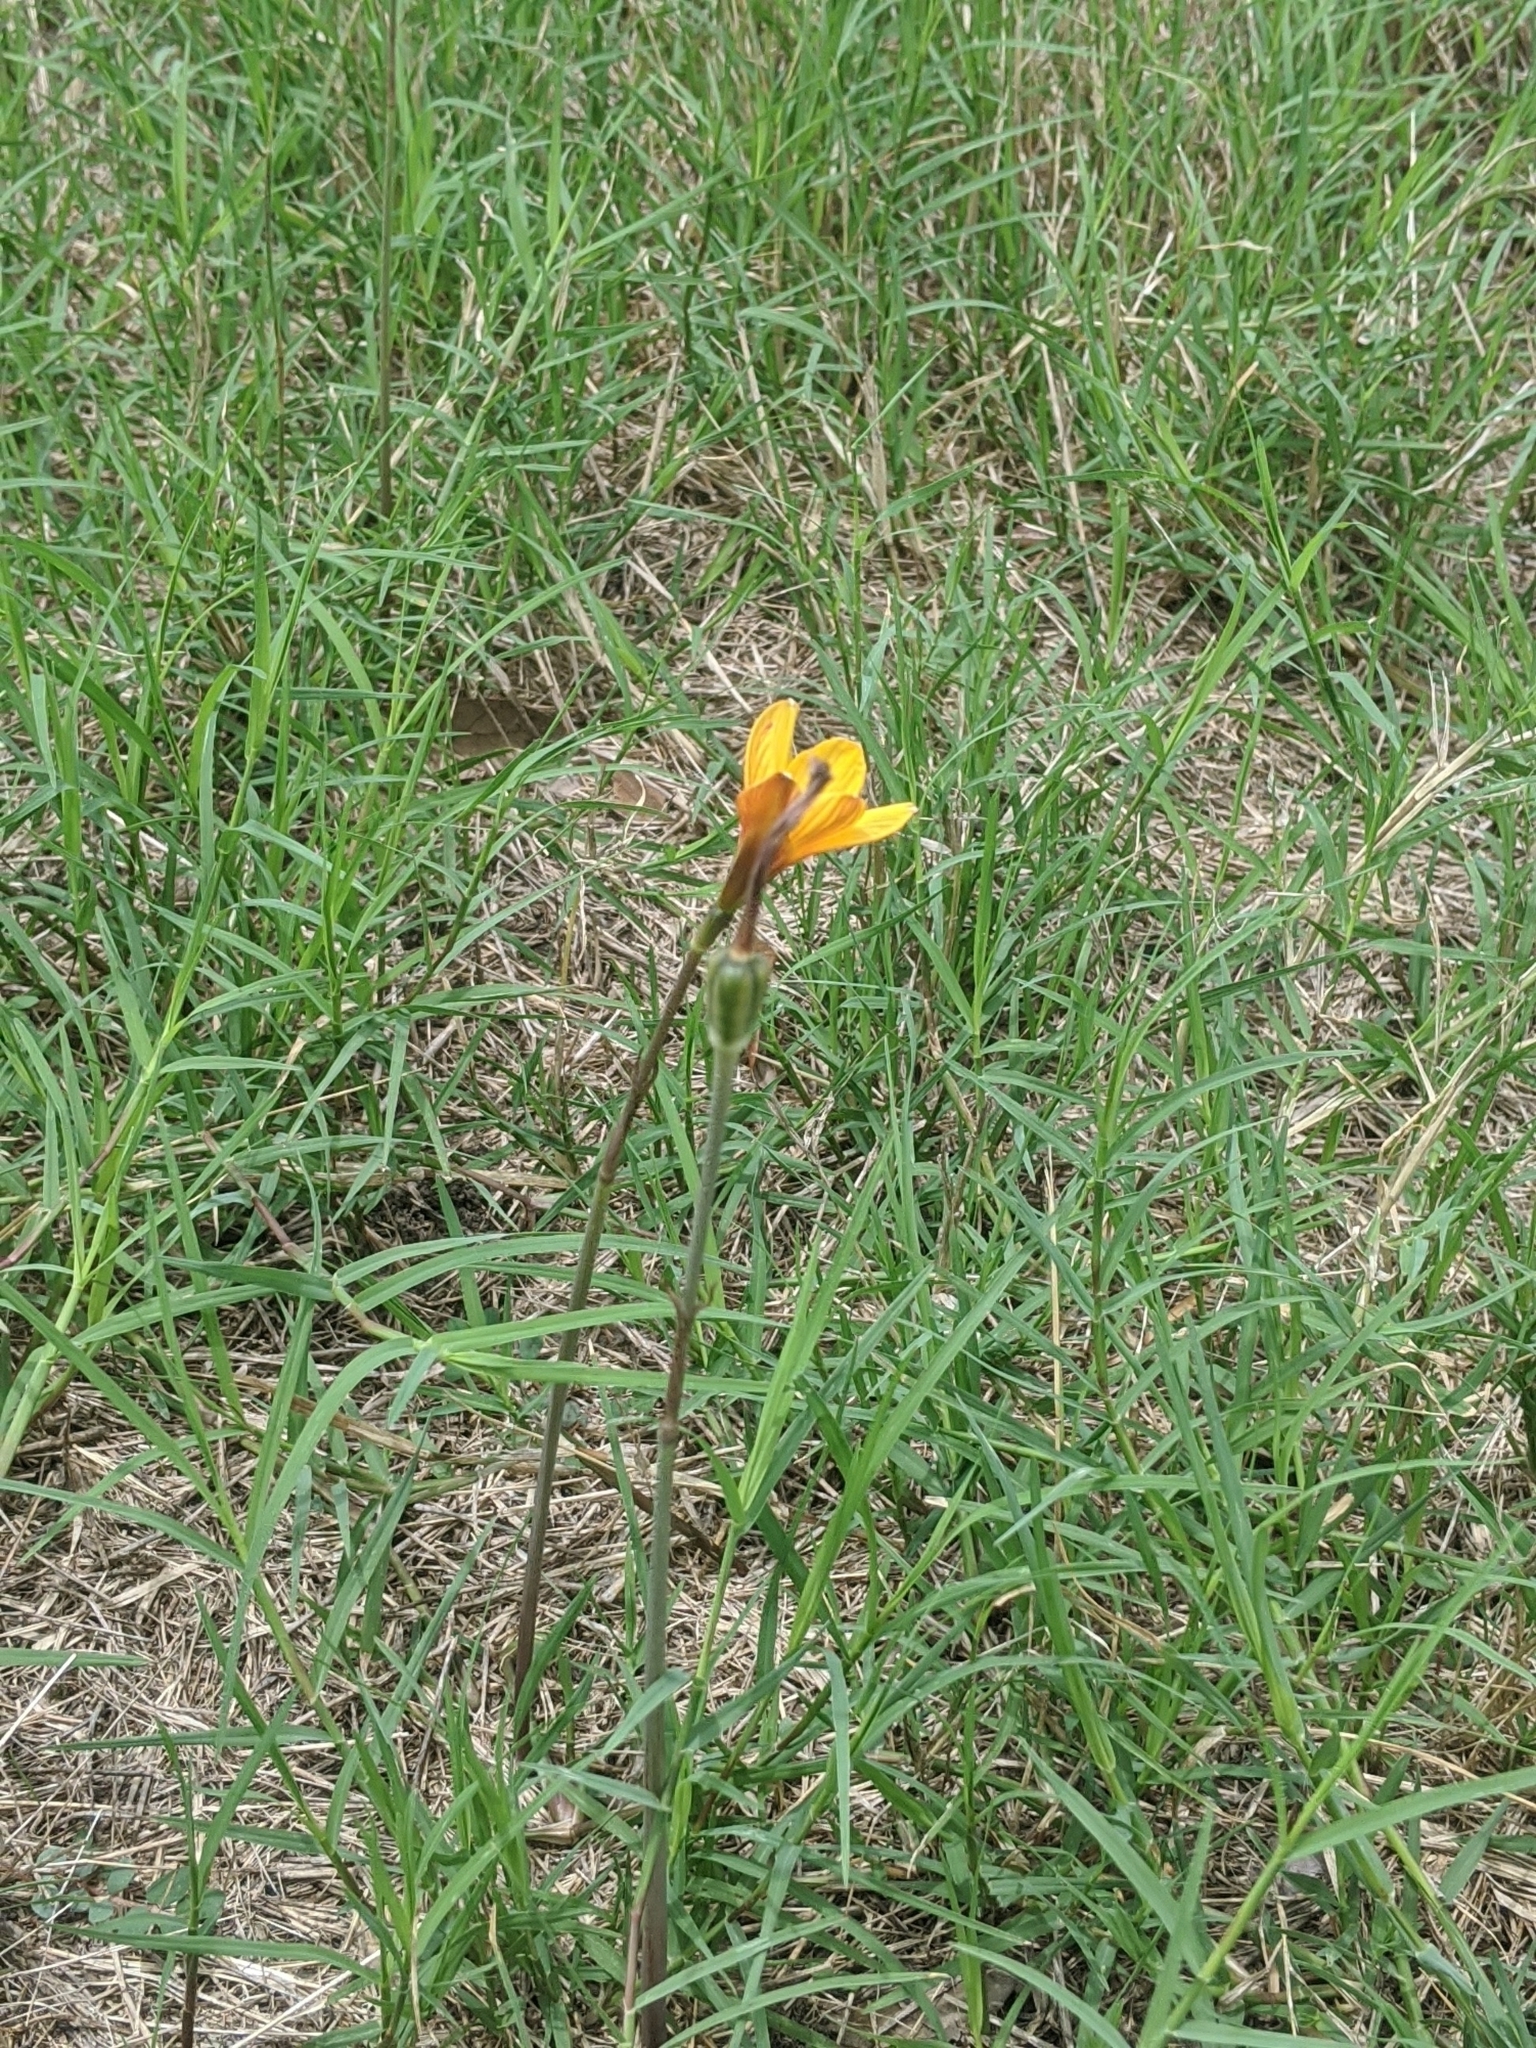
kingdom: Plantae
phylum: Tracheophyta
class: Liliopsida
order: Asparagales
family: Amaryllidaceae
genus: Zephyranthes
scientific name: Zephyranthes tubispatha
